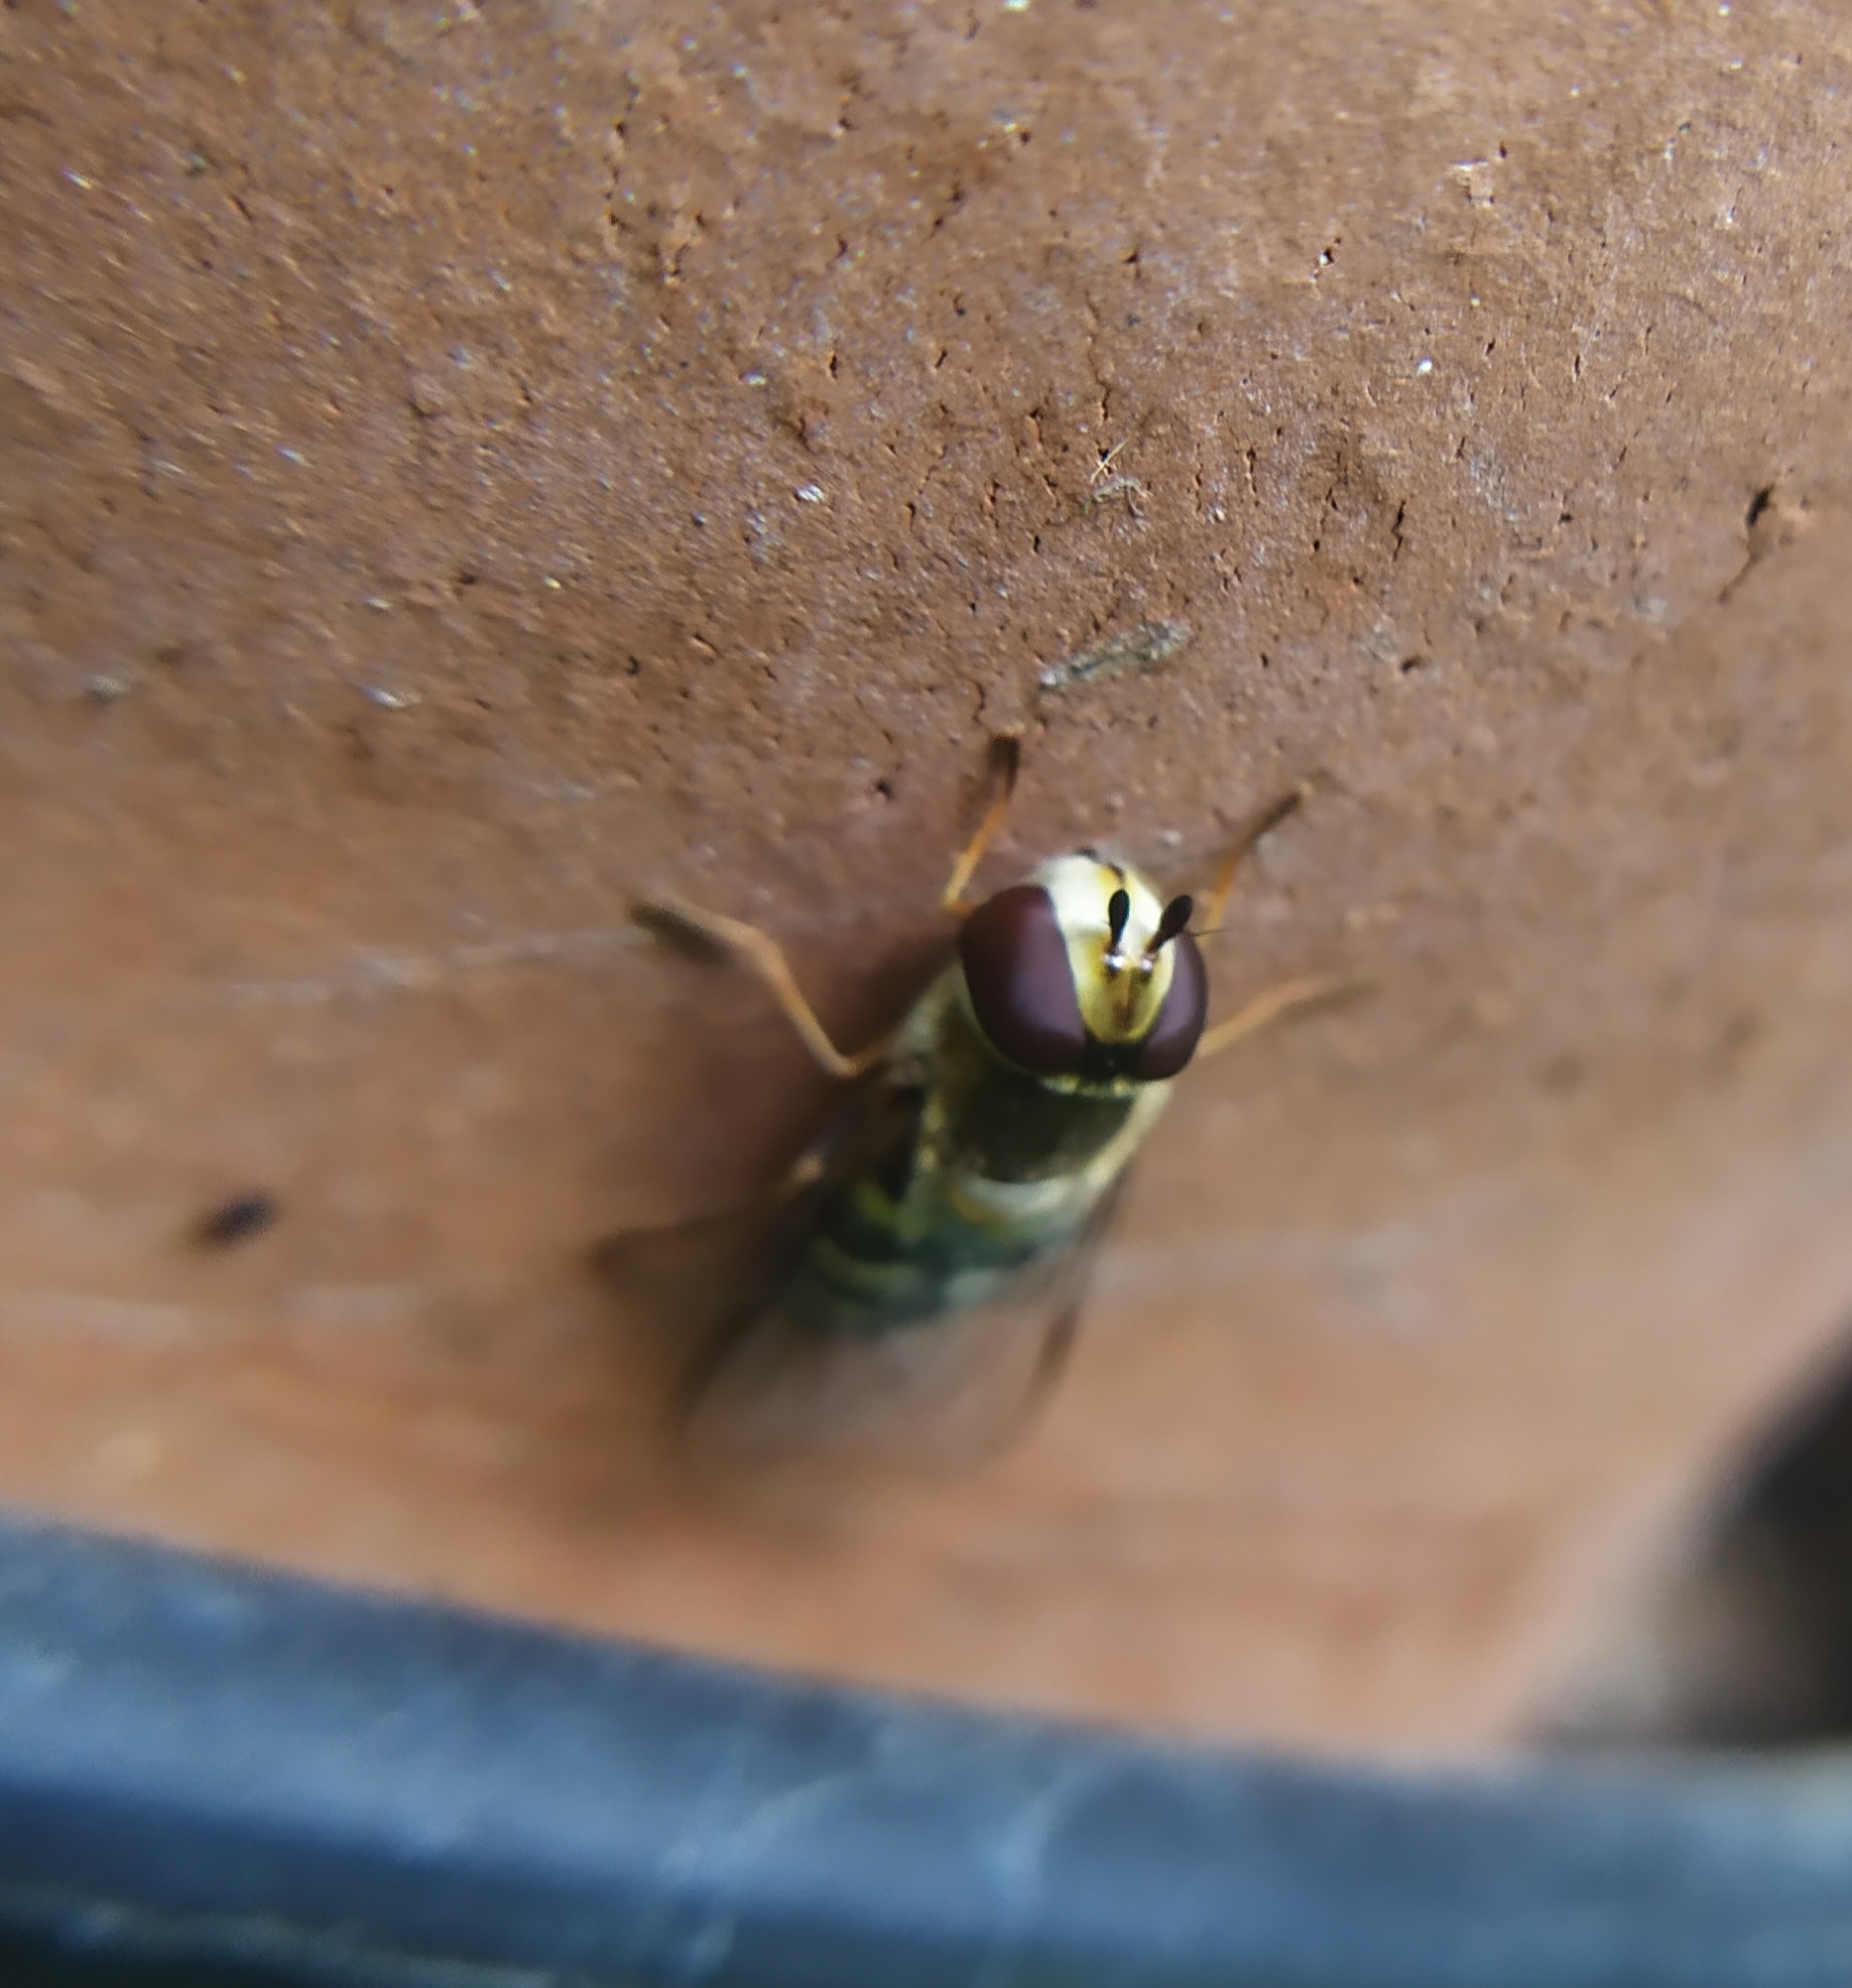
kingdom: Animalia
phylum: Arthropoda
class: Insecta
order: Diptera
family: Syrphidae
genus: Scaeva
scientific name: Scaeva dignota
